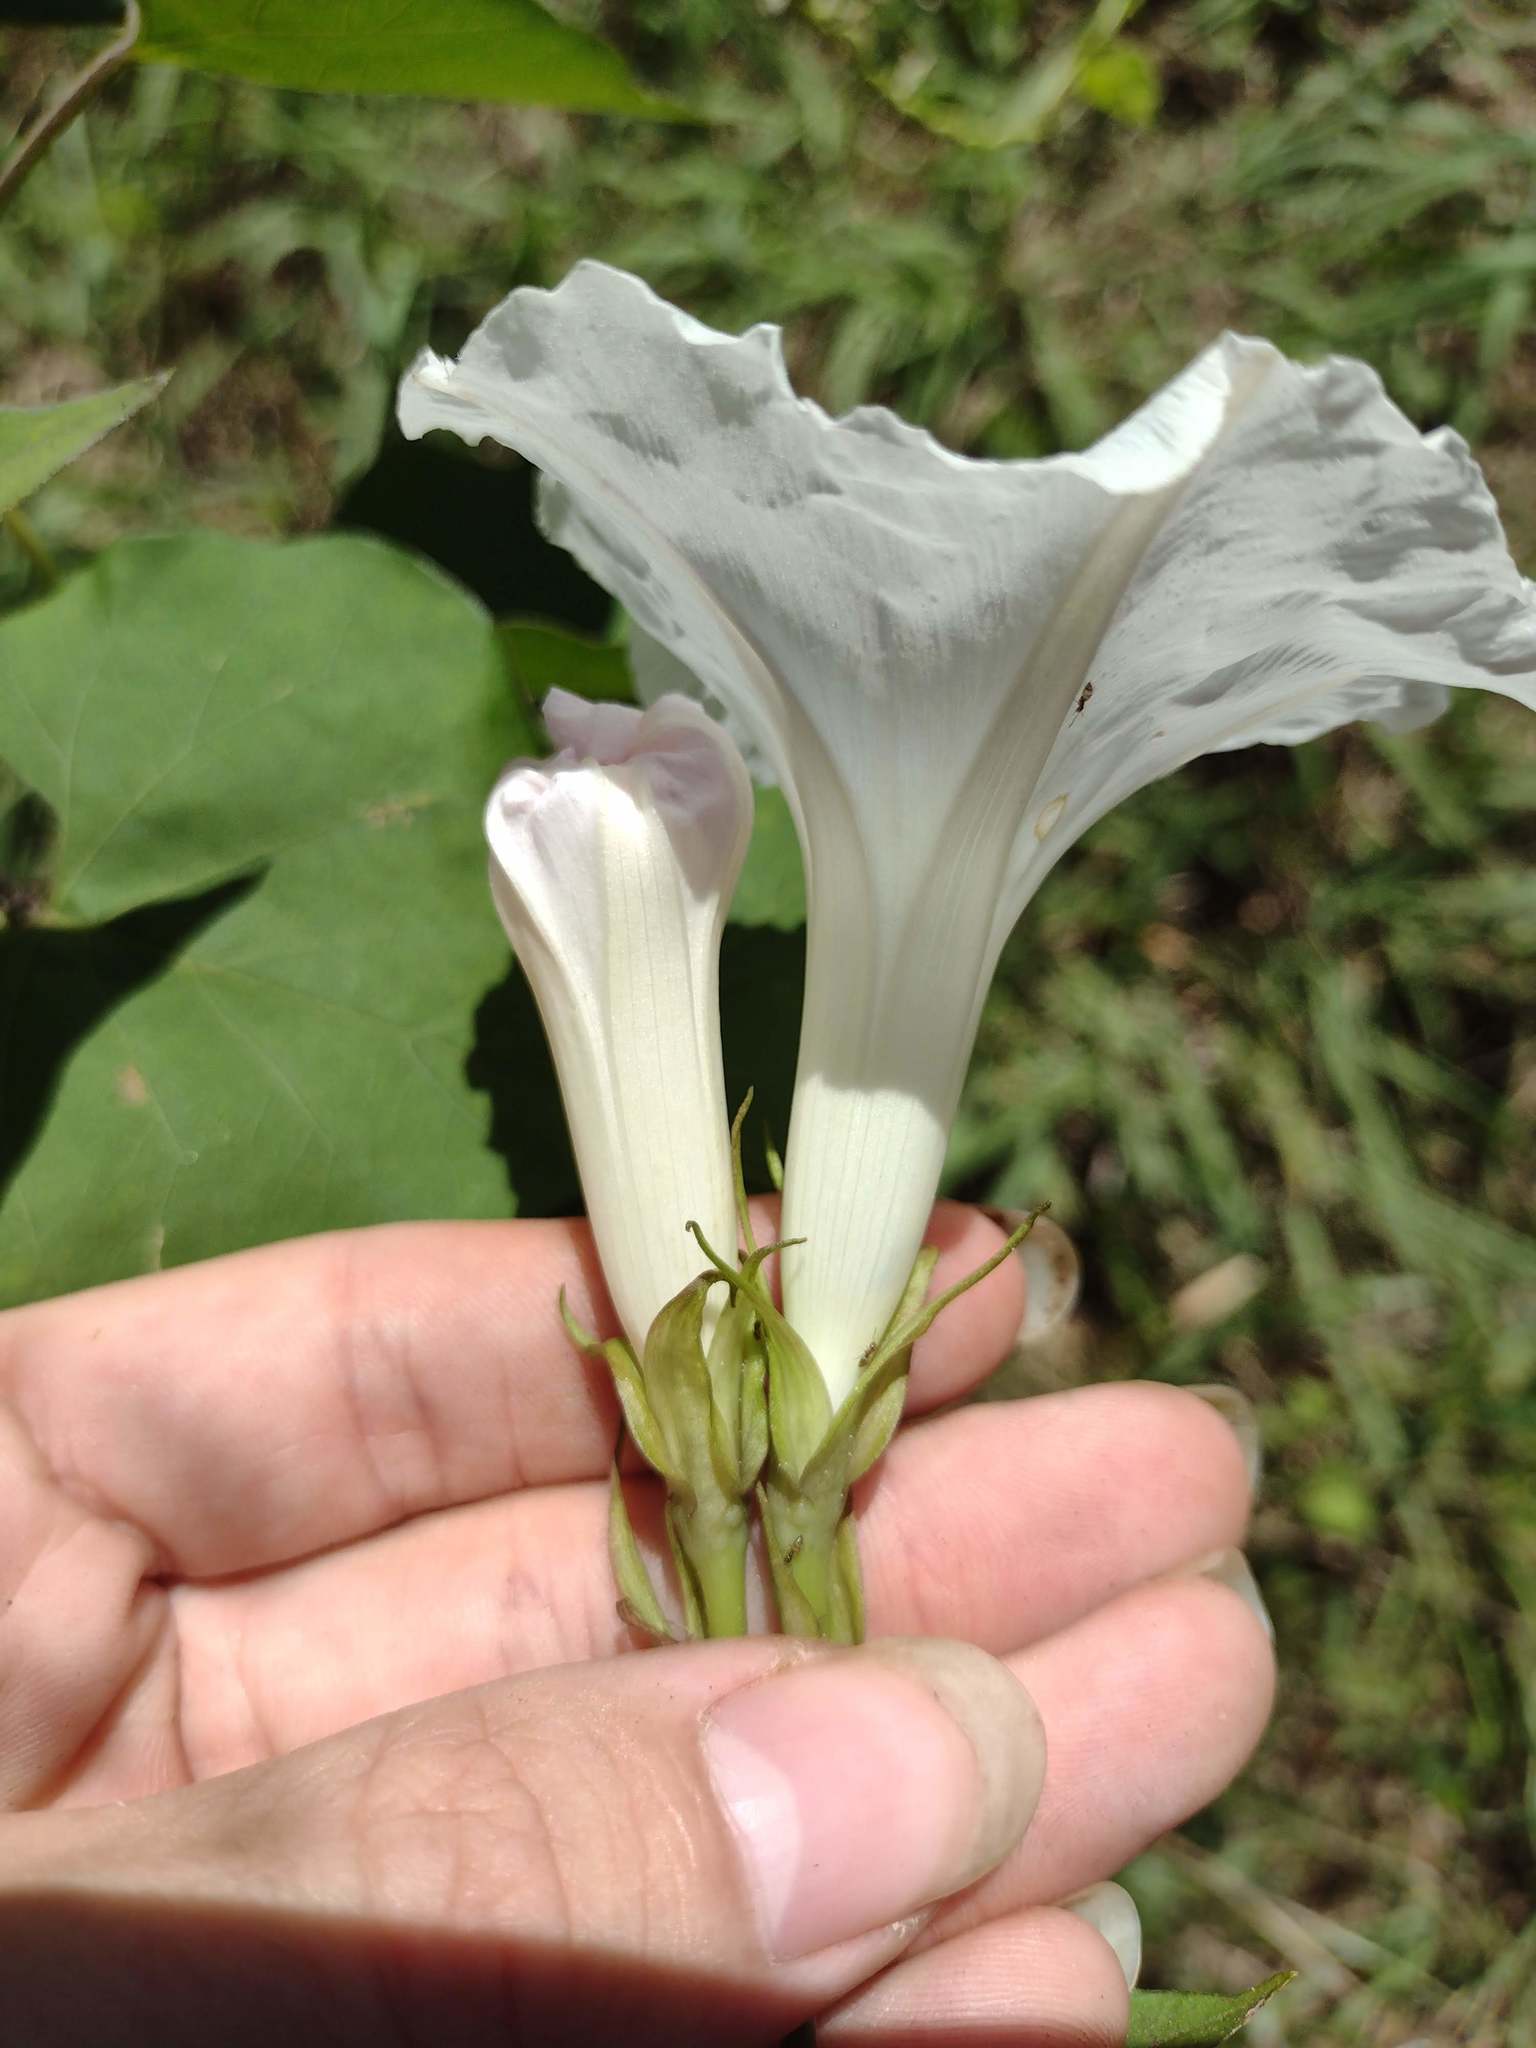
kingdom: Plantae
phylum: Tracheophyta
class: Magnoliopsida
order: Solanales
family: Convolvulaceae
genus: Ipomoea
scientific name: Ipomoea indica
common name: Blue dawnflower
